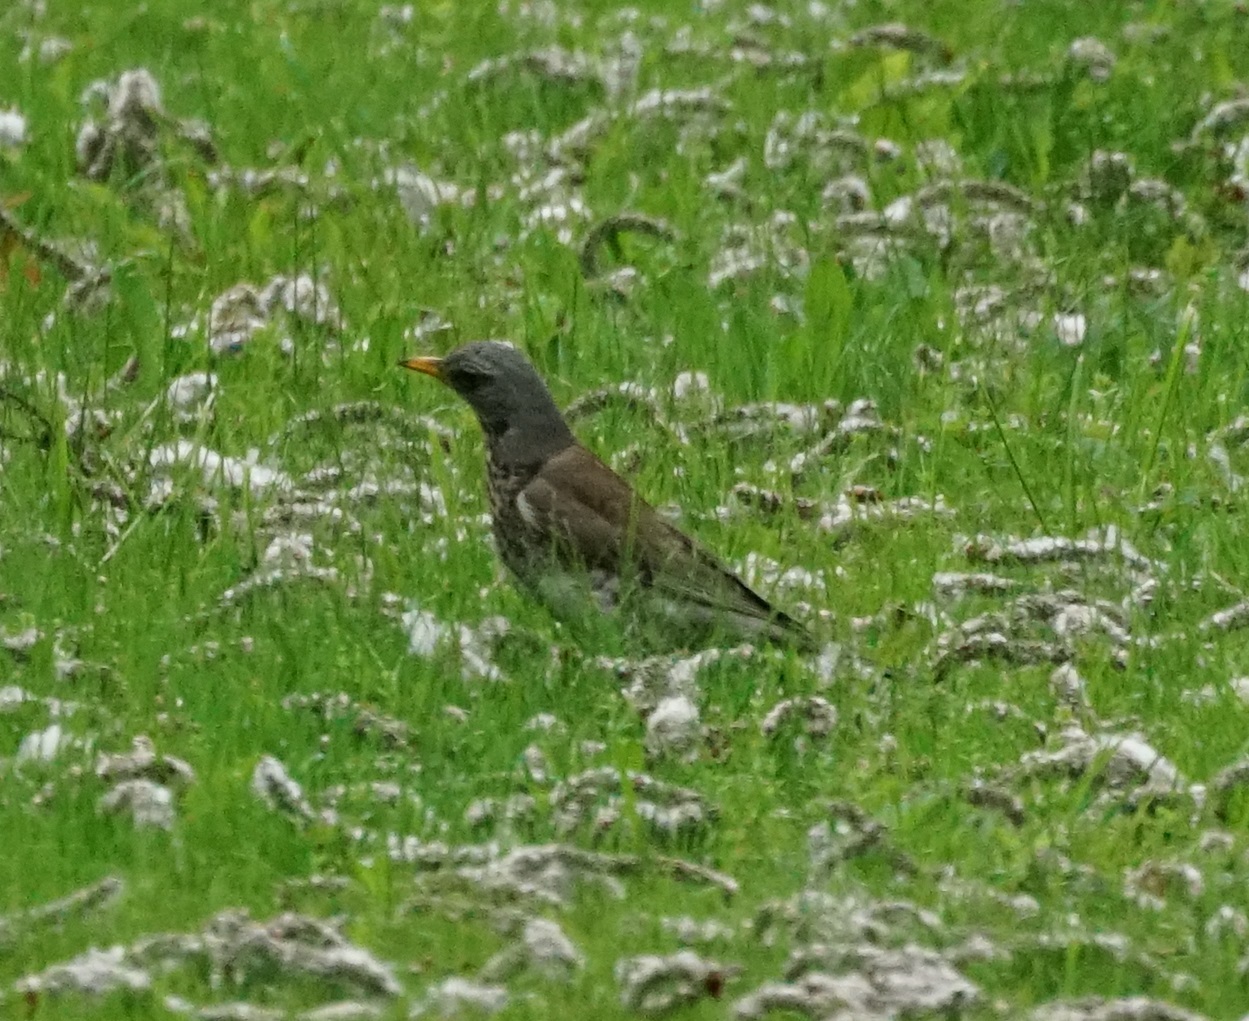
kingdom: Animalia
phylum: Chordata
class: Aves
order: Passeriformes
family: Turdidae
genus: Turdus
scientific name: Turdus pilaris
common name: Fieldfare
